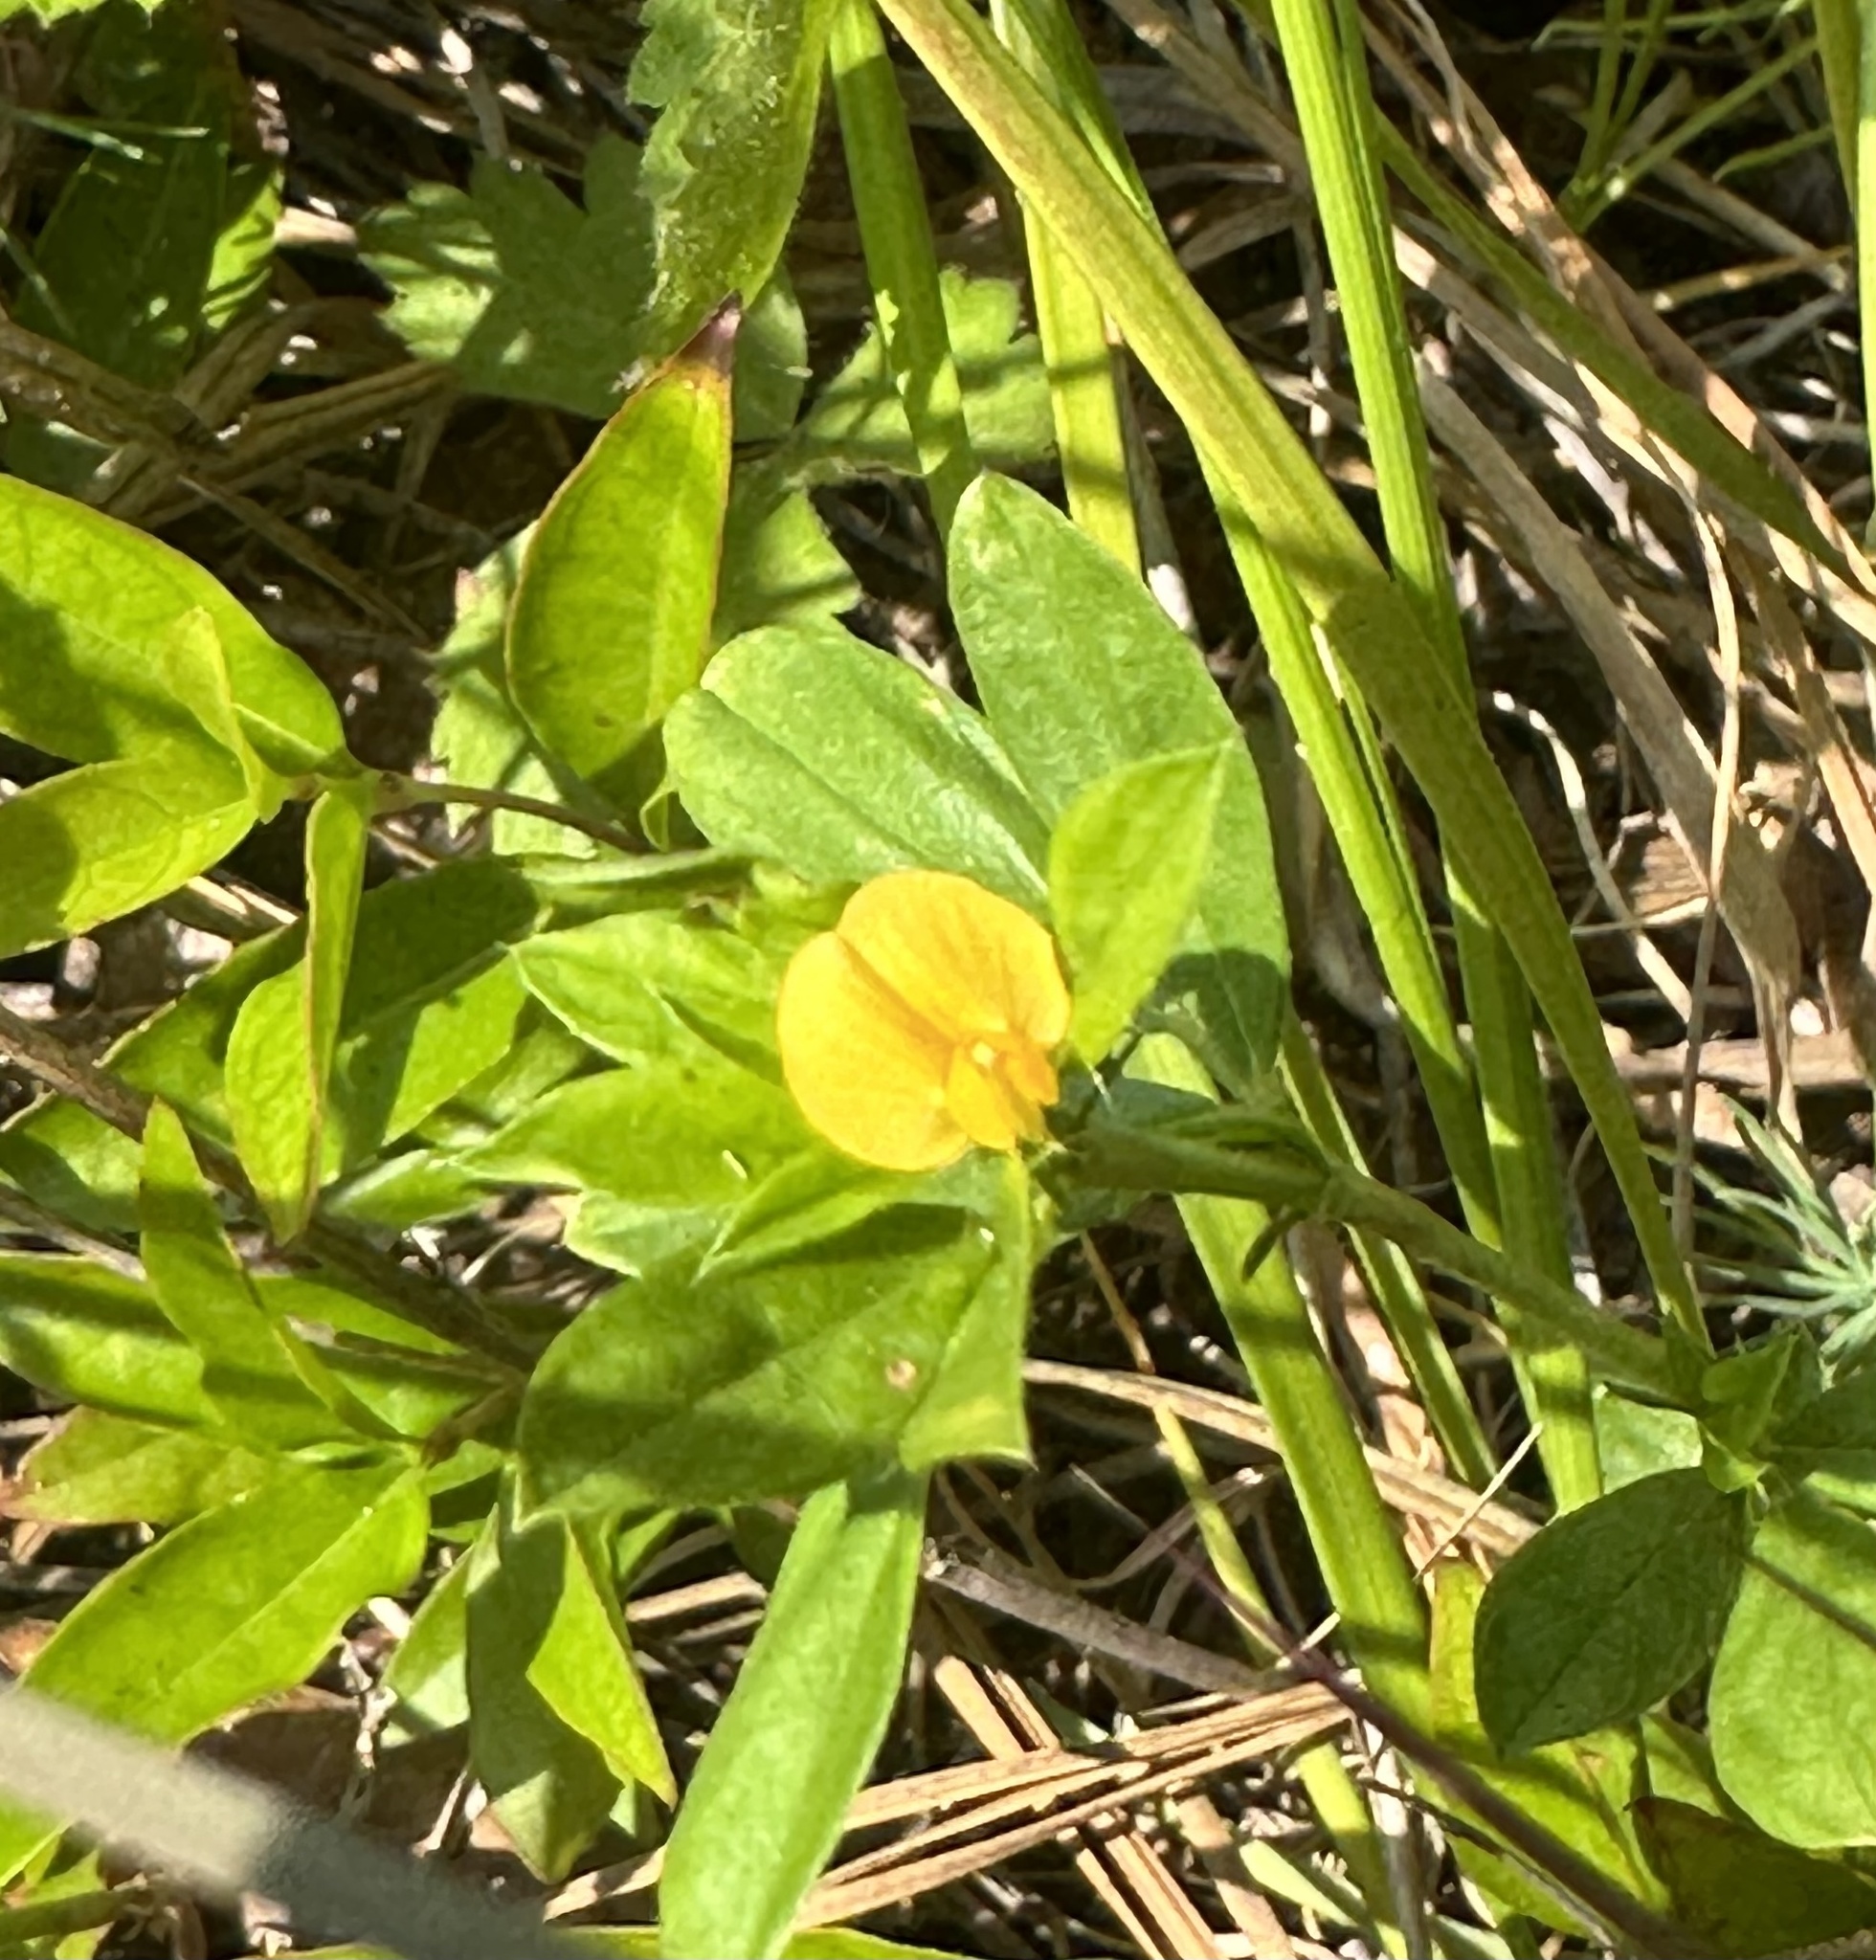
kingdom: Plantae
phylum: Tracheophyta
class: Magnoliopsida
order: Fabales
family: Fabaceae
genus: Stylosanthes
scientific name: Stylosanthes biflora
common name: Two-flower pencil-flower
